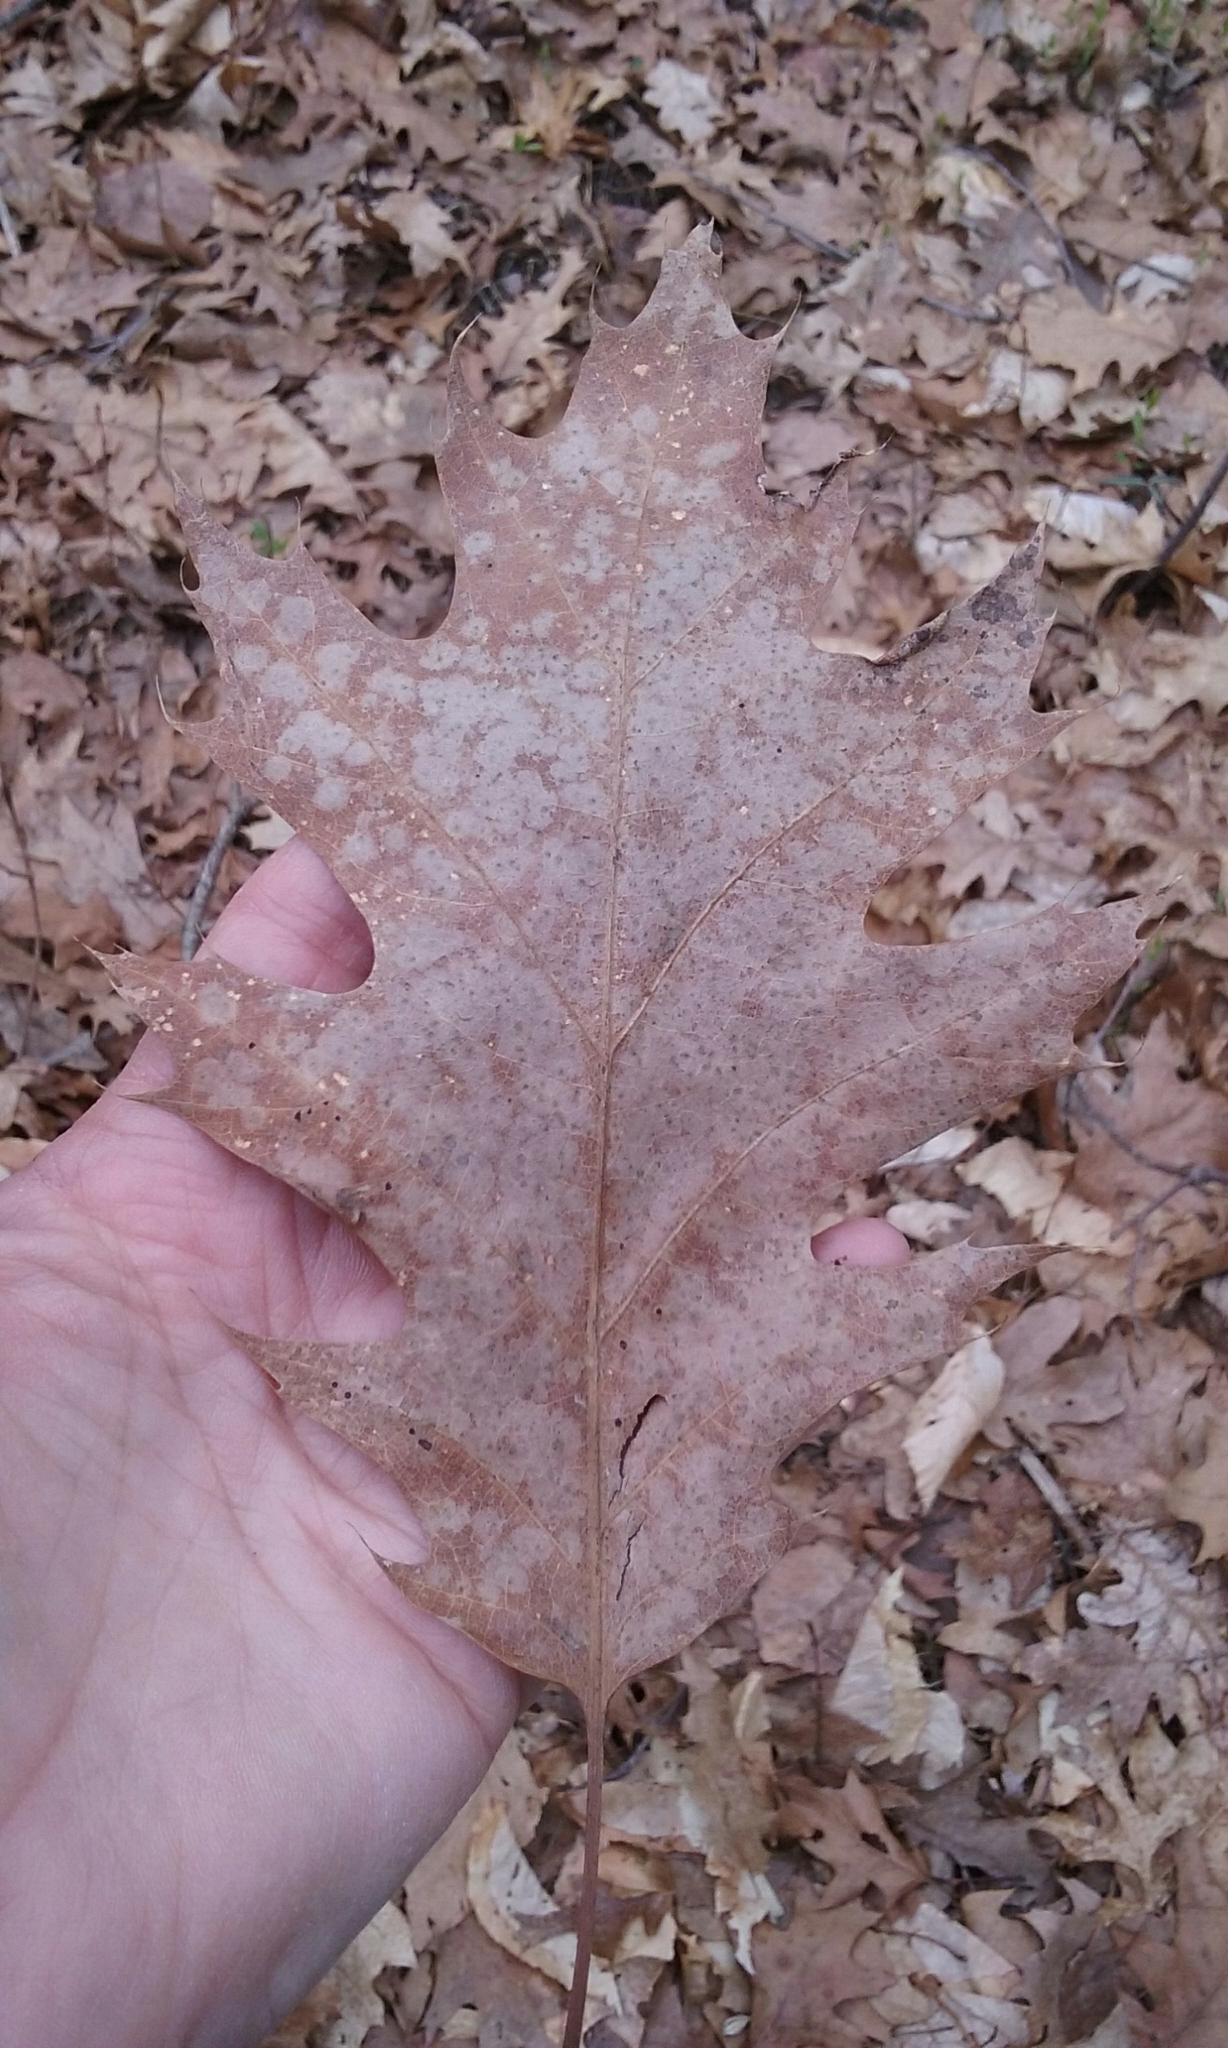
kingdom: Plantae
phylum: Tracheophyta
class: Magnoliopsida
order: Fagales
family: Fagaceae
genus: Quercus
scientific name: Quercus rubra
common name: Red oak
